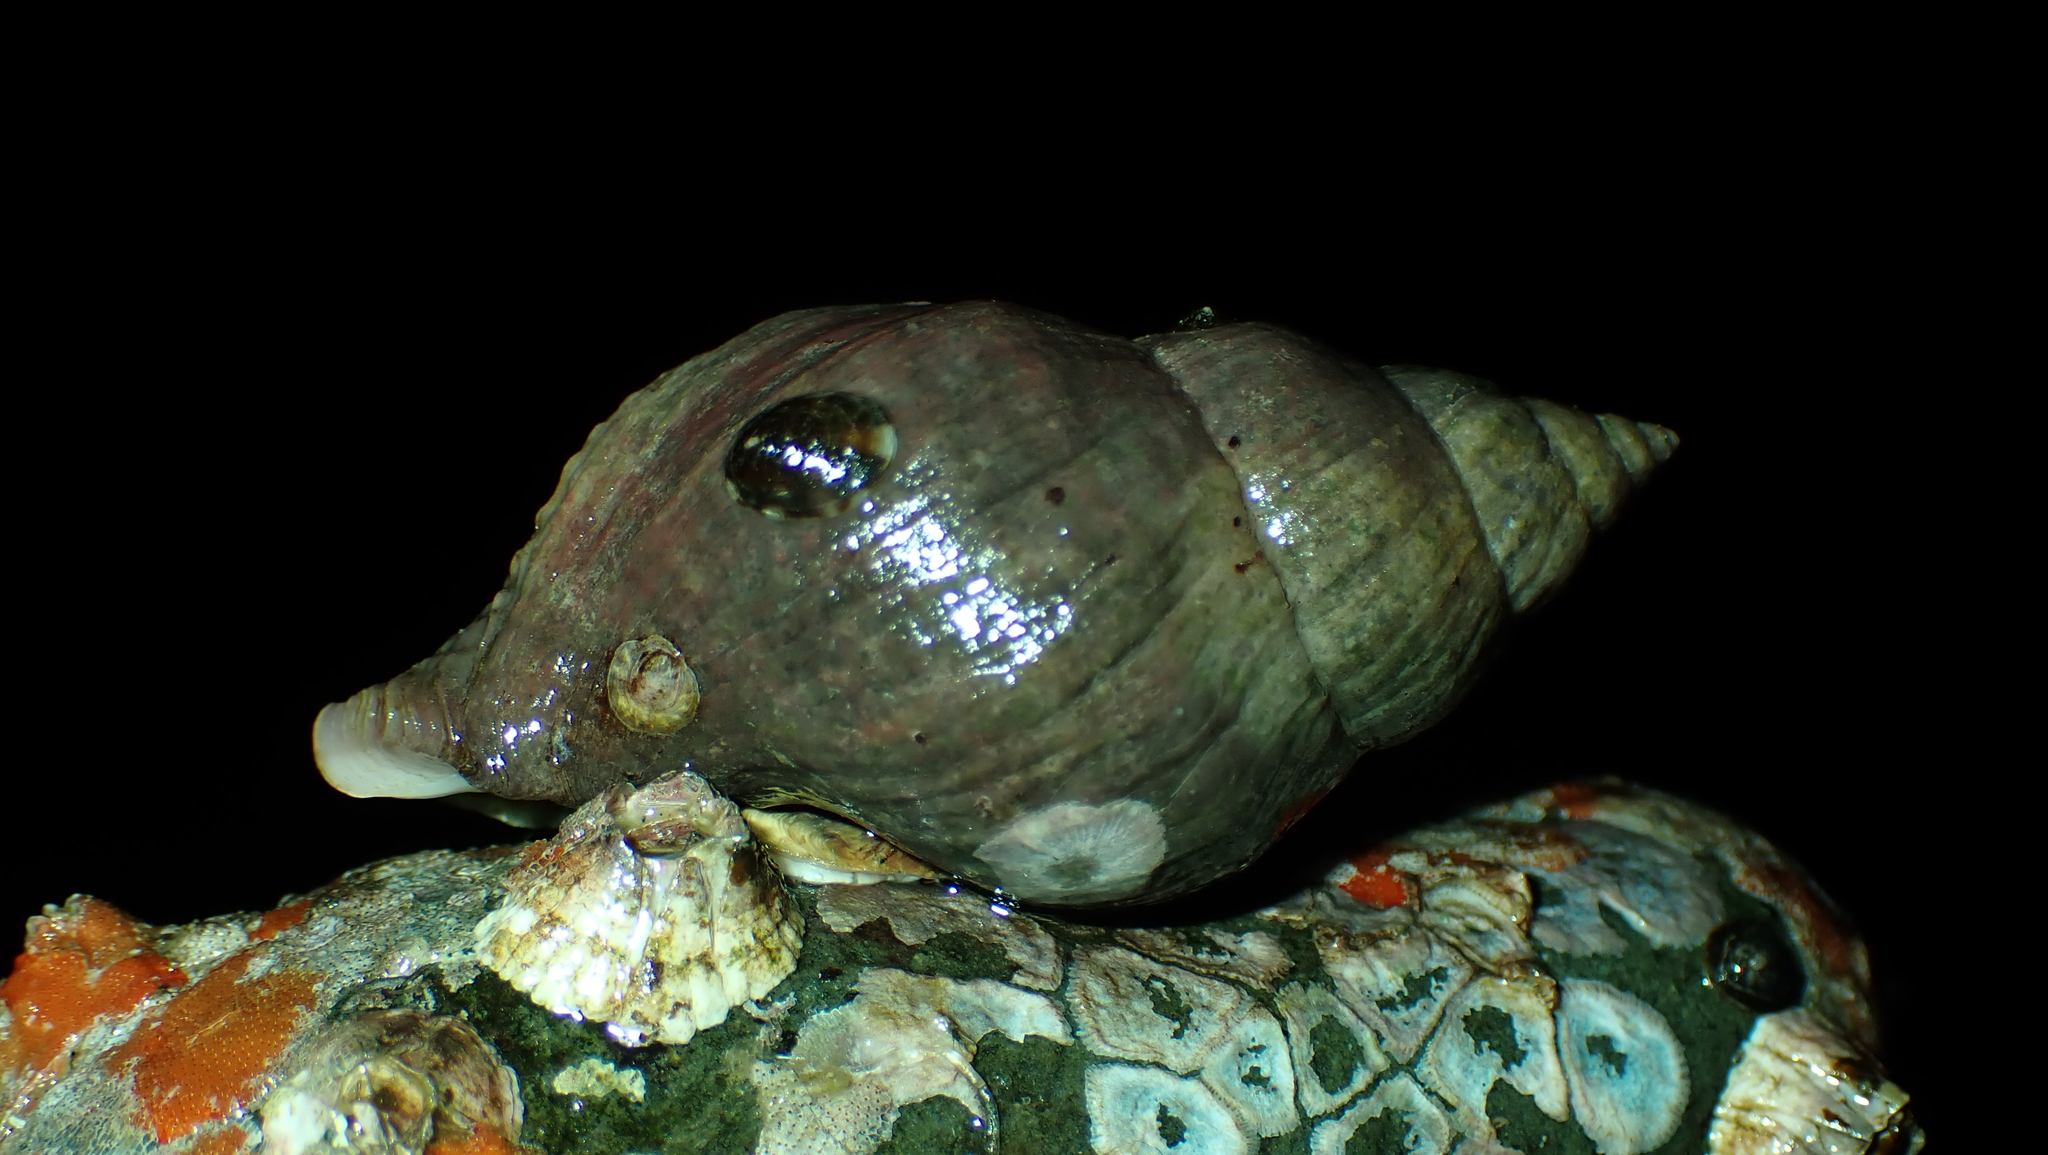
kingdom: Animalia
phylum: Mollusca
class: Gastropoda
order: Neogastropoda
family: Muricidae
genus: Nucella
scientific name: Nucella lamellosa
